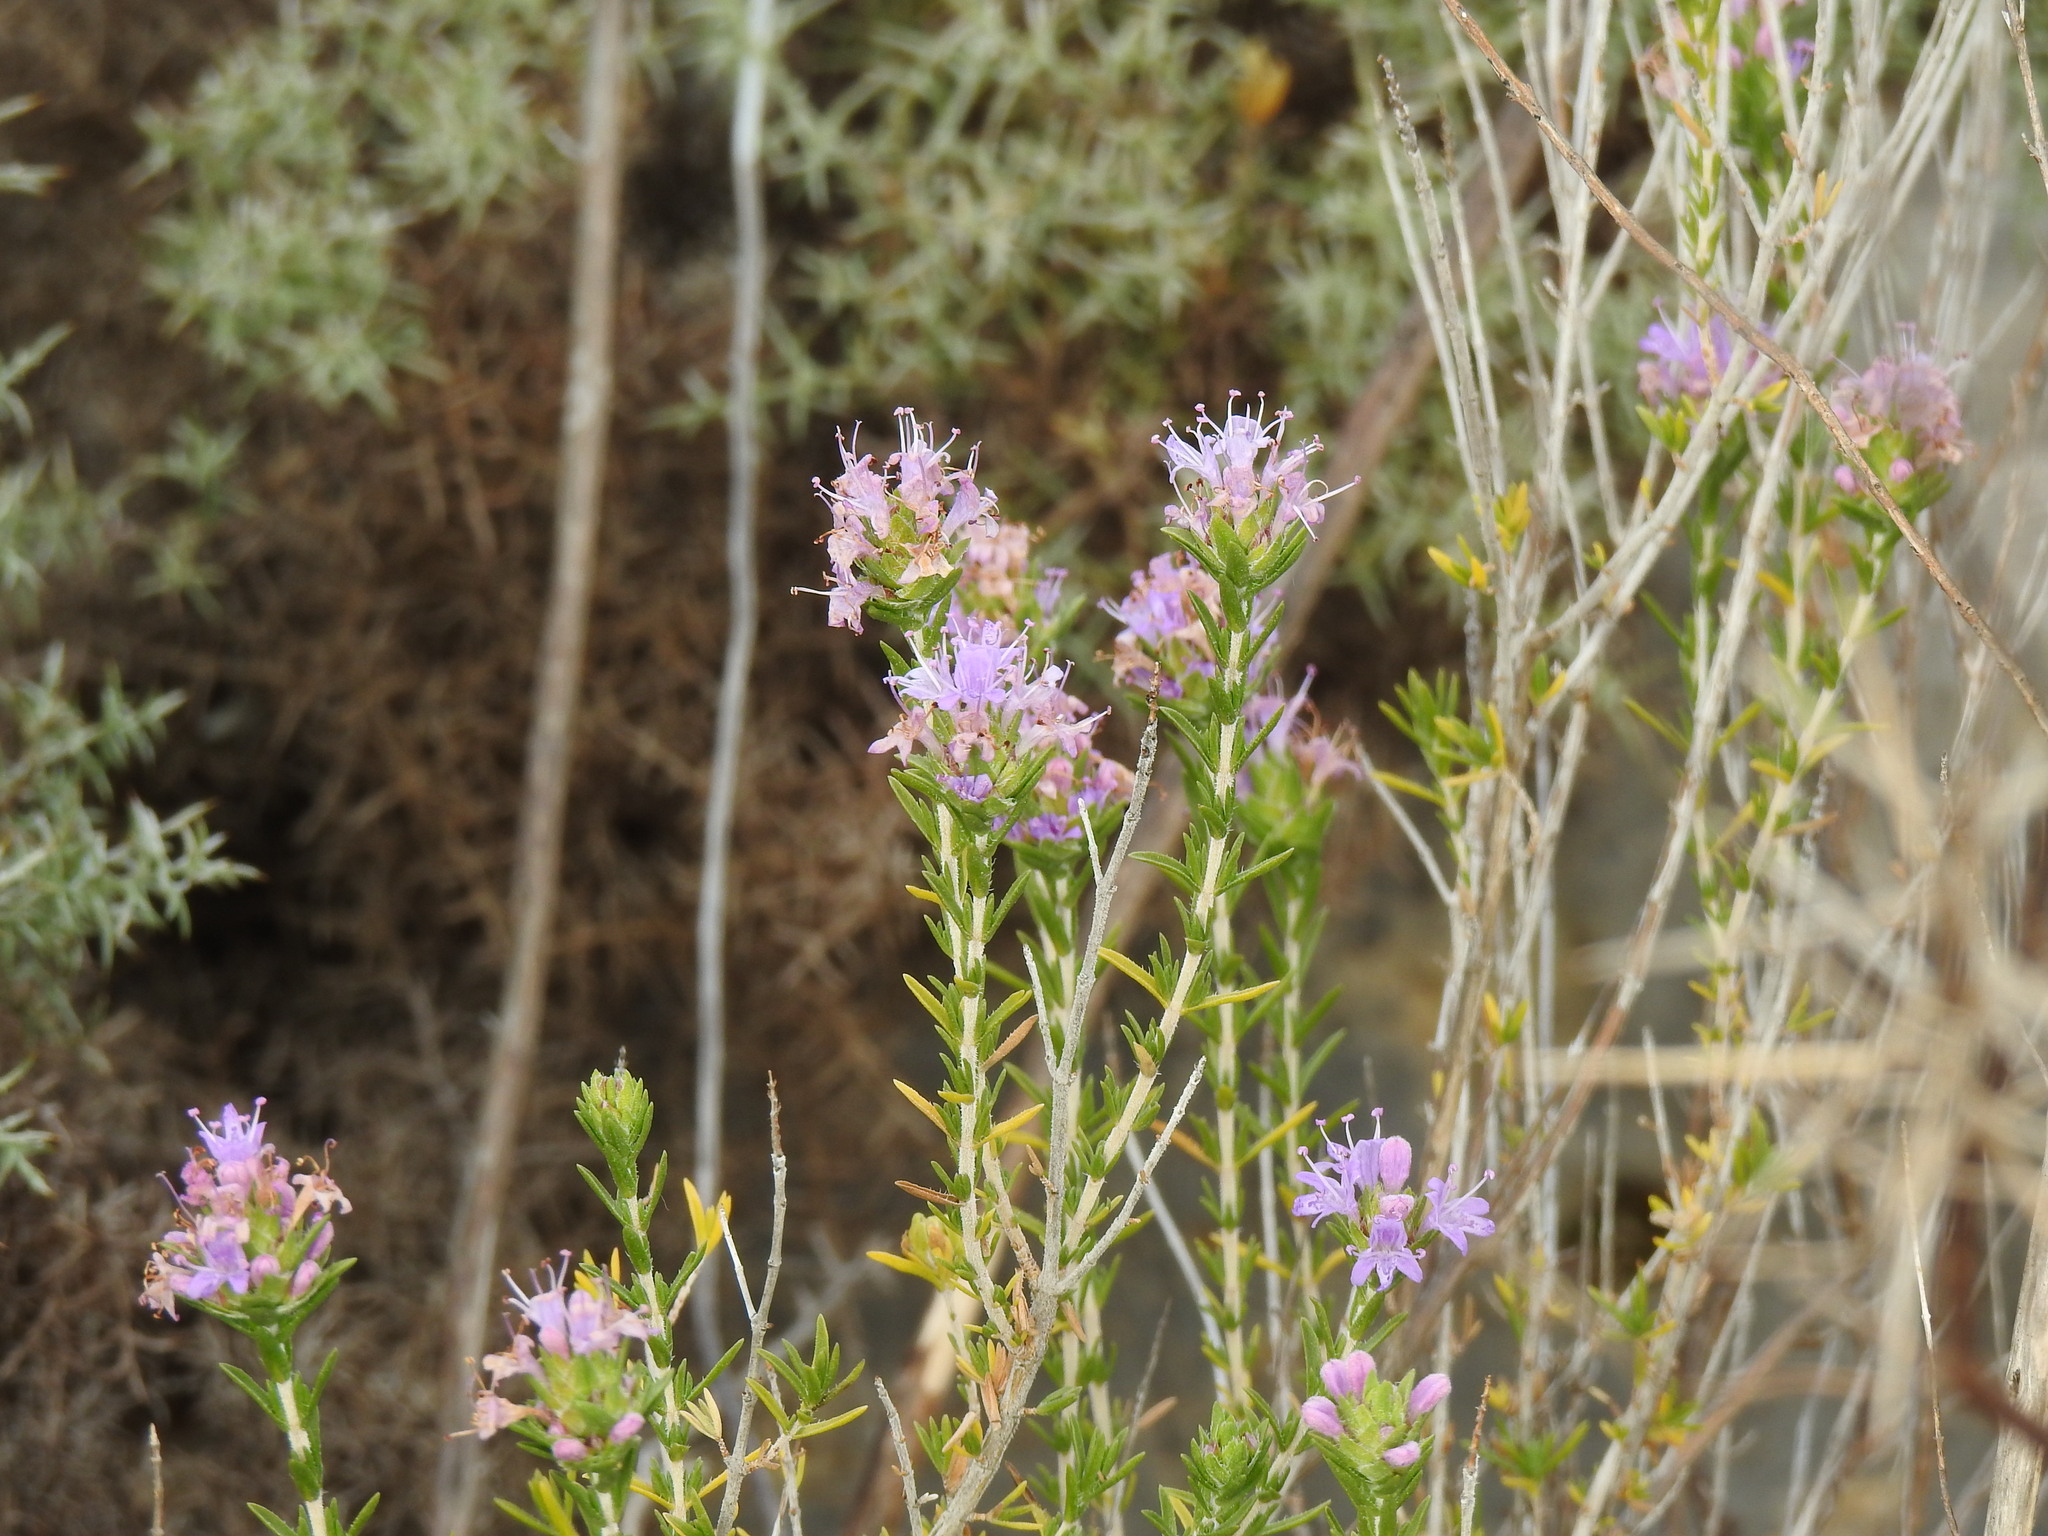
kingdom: Plantae
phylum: Tracheophyta
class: Magnoliopsida
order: Lamiales
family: Lamiaceae
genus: Thymbra
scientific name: Thymbra capitata
